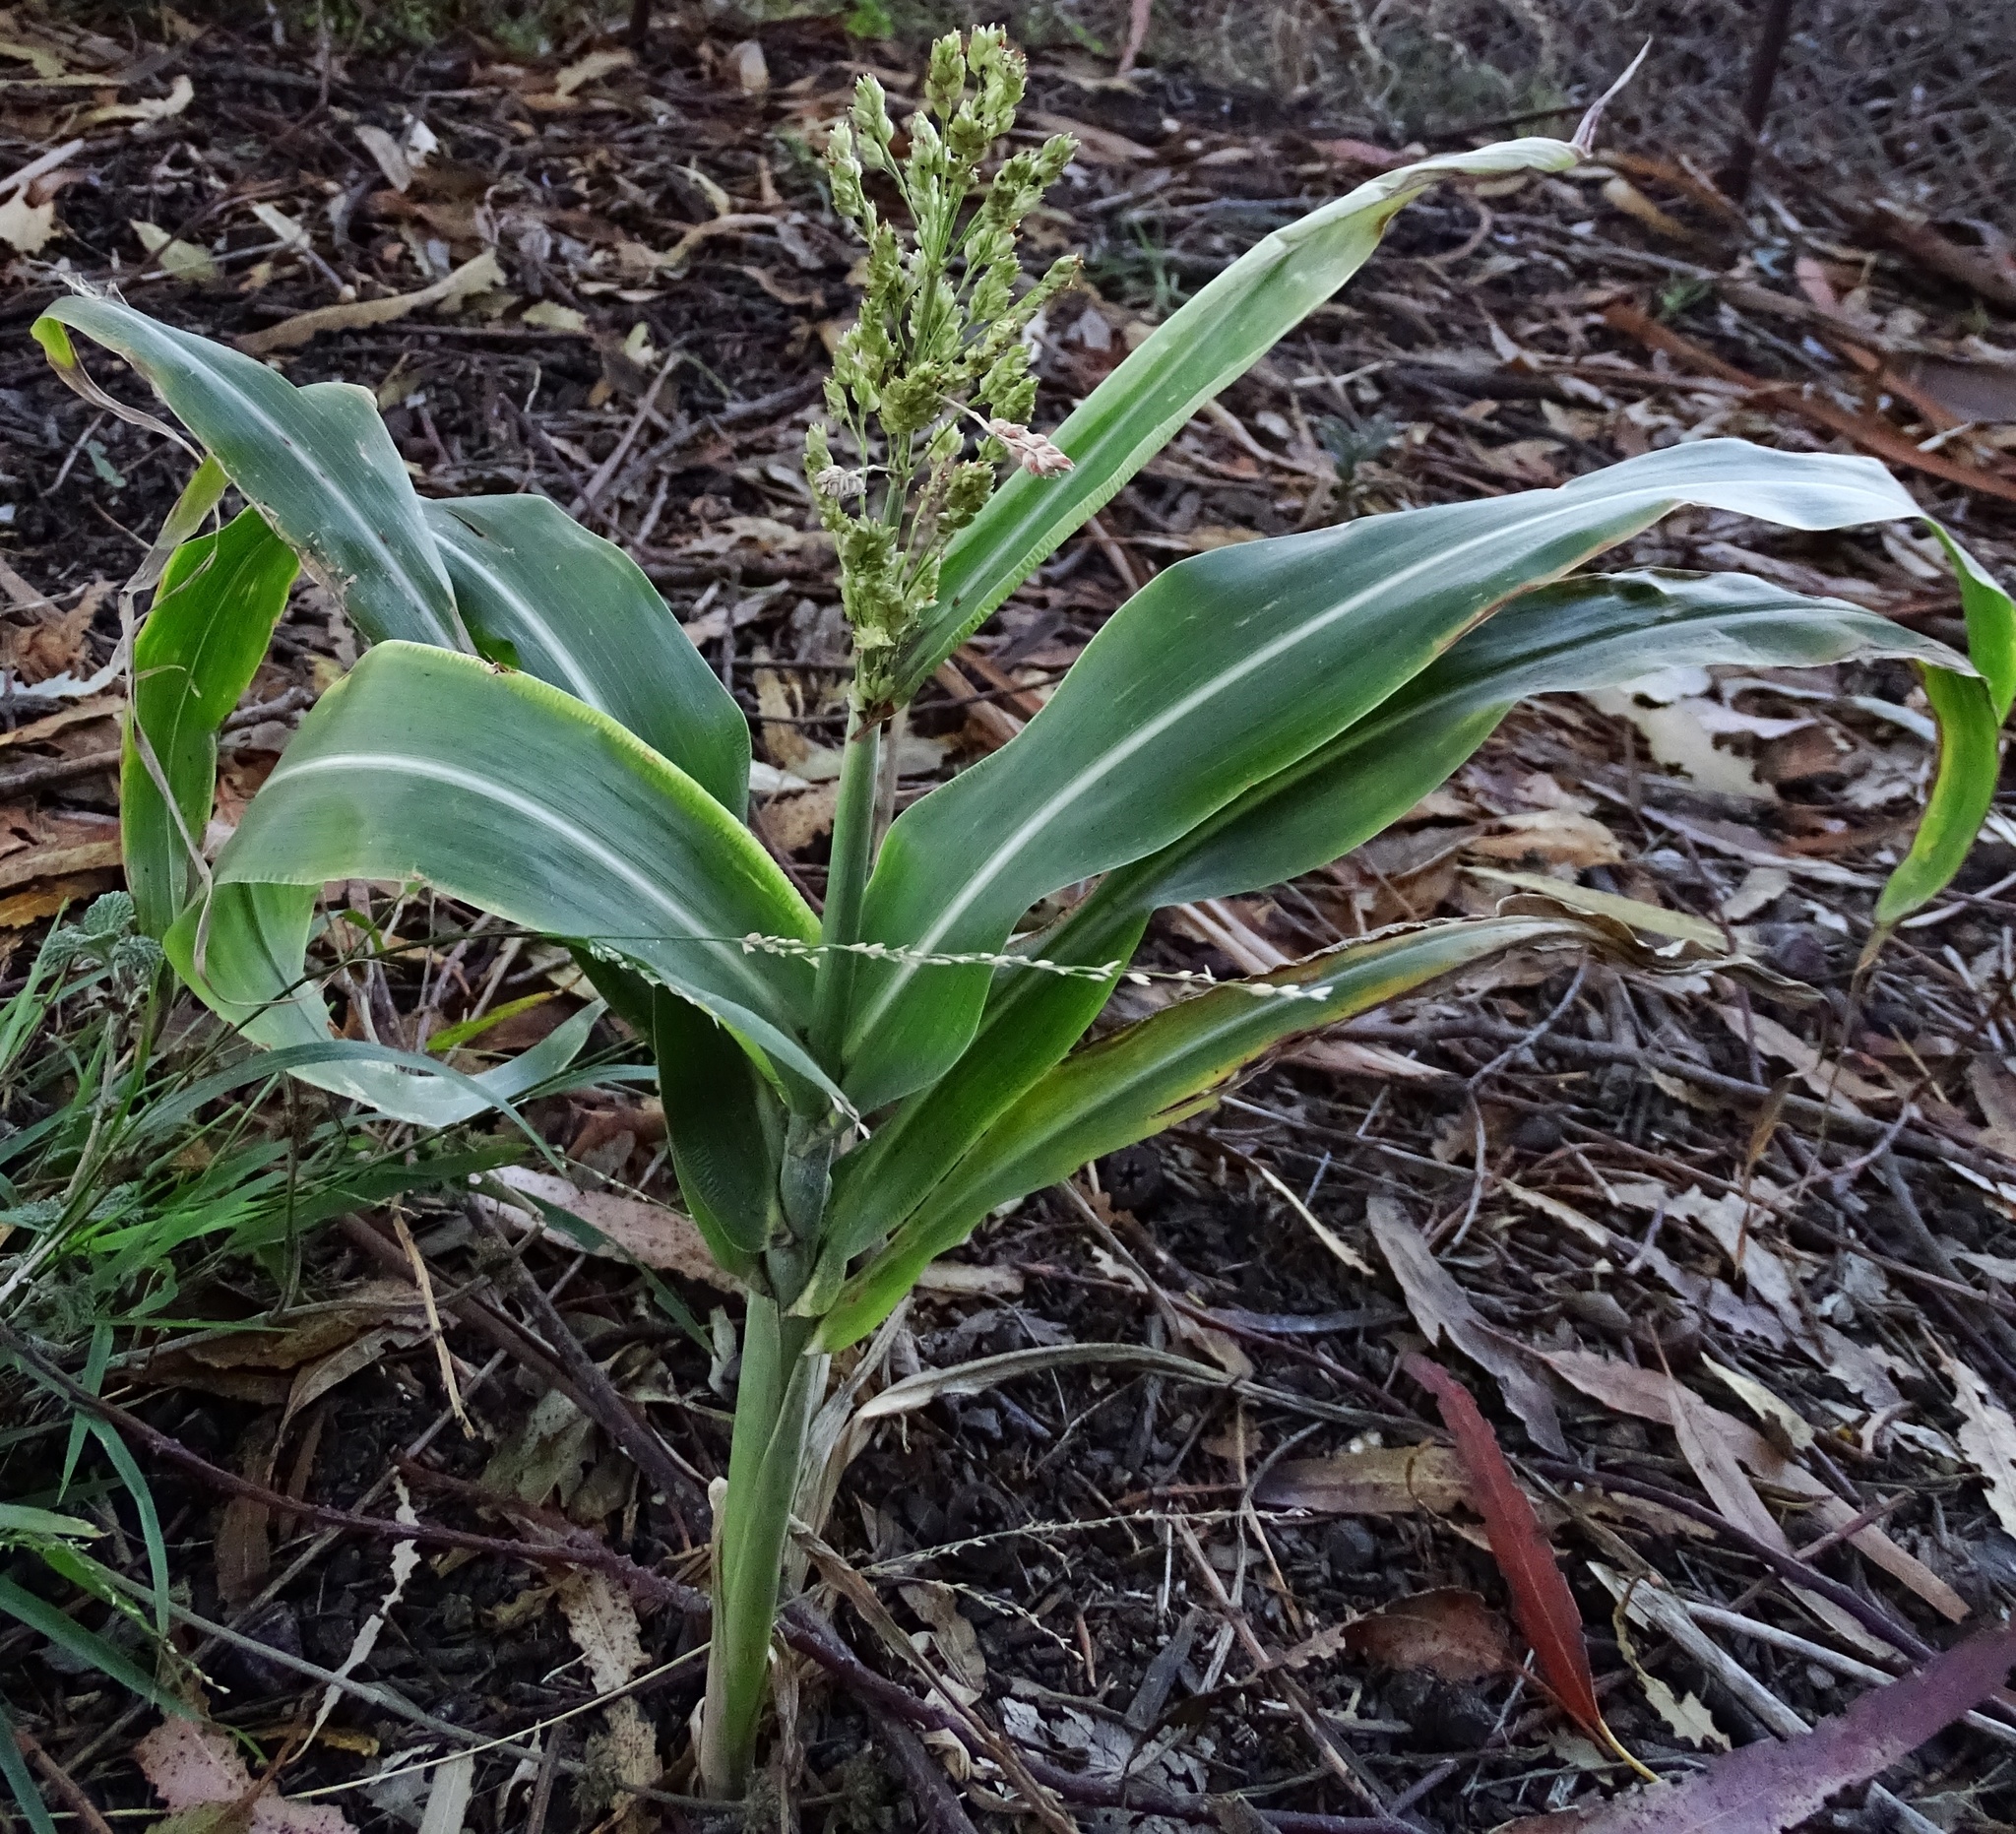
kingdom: Plantae
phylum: Tracheophyta
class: Liliopsida
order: Poales
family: Poaceae
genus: Sorghum
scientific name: Sorghum bicolor
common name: Sorghum
